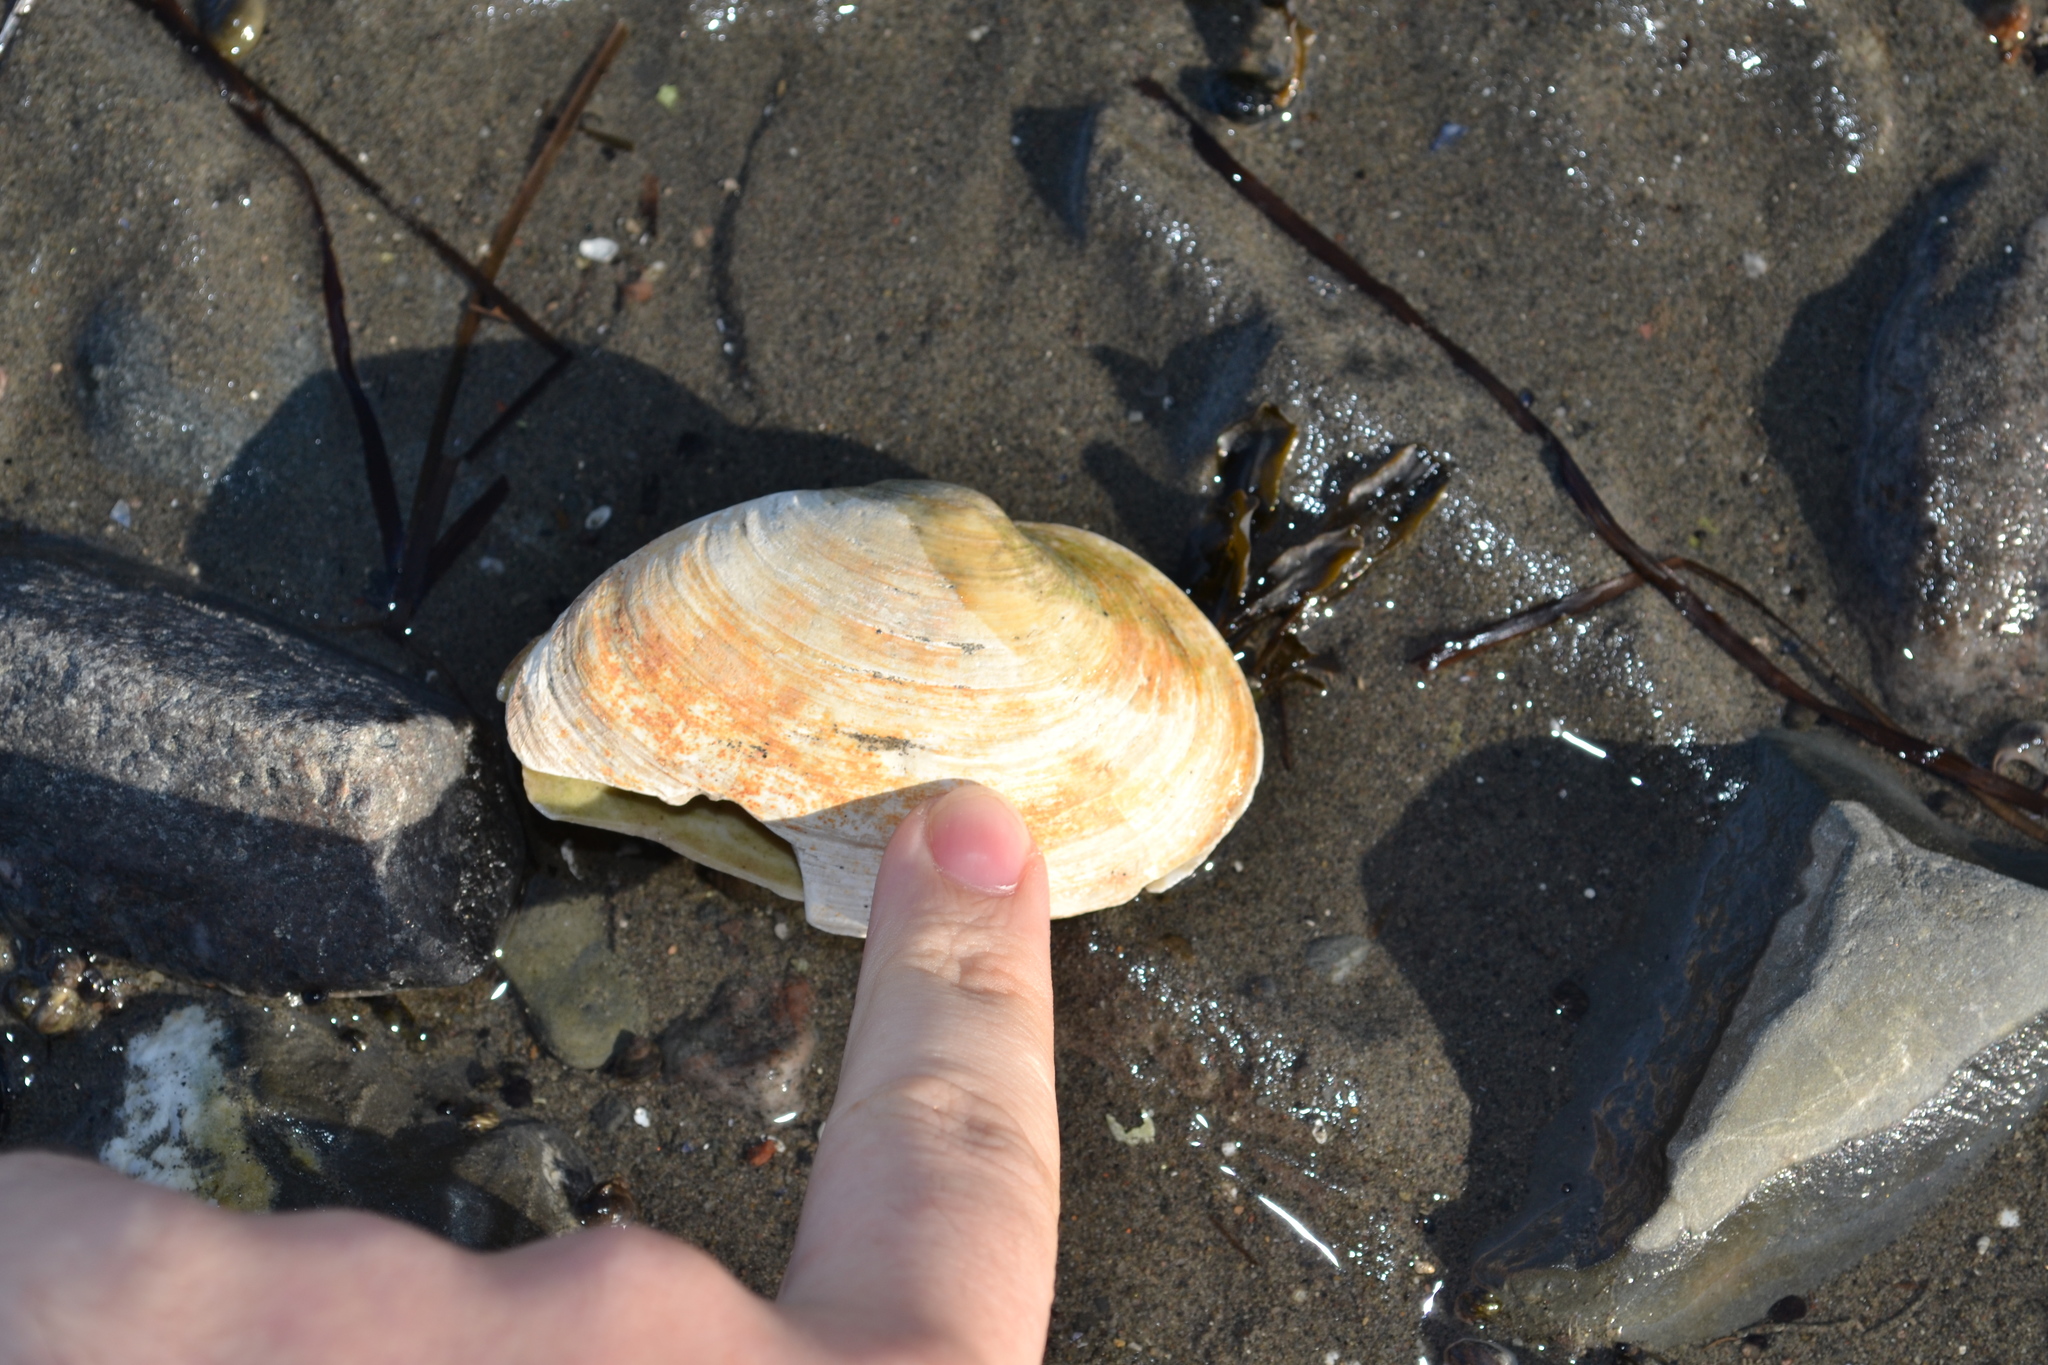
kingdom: Animalia
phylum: Mollusca
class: Bivalvia
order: Myida
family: Myidae
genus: Mya
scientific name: Mya arenaria
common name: Soft-shelled clam
